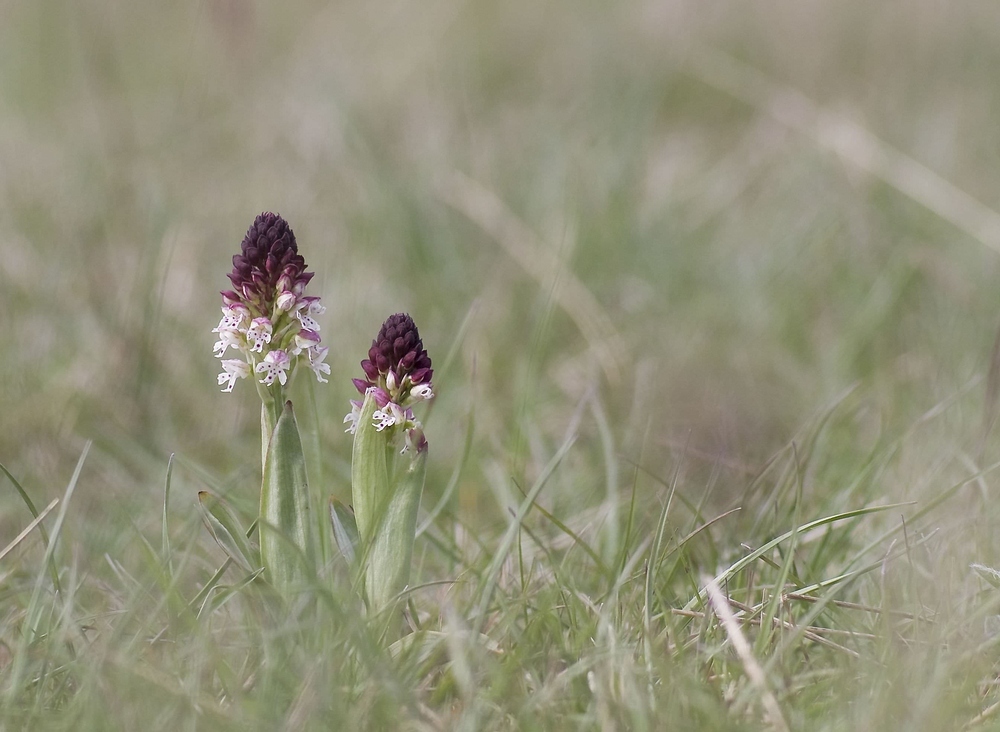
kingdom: Plantae
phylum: Tracheophyta
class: Liliopsida
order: Asparagales
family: Orchidaceae
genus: Neotinea
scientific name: Neotinea ustulata
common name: Burnt orchid
